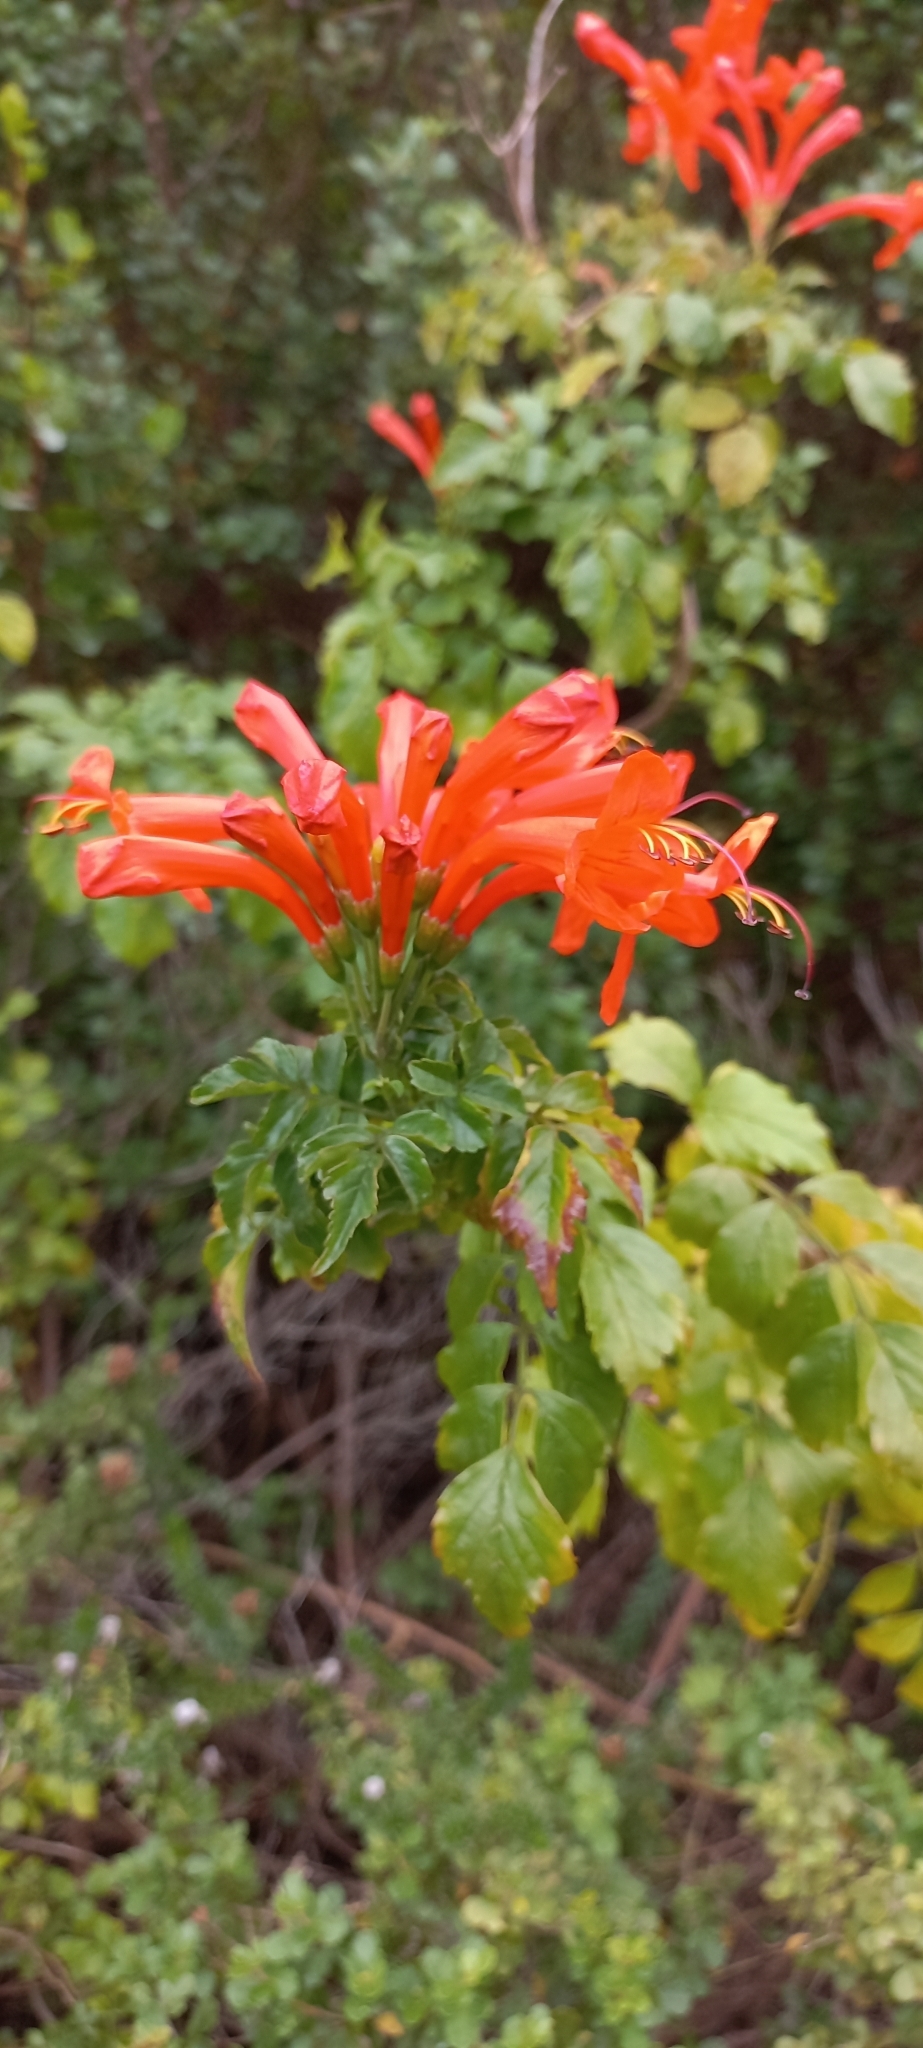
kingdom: Plantae
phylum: Tracheophyta
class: Magnoliopsida
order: Lamiales
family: Bignoniaceae
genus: Tecomaria
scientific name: Tecomaria capensis
